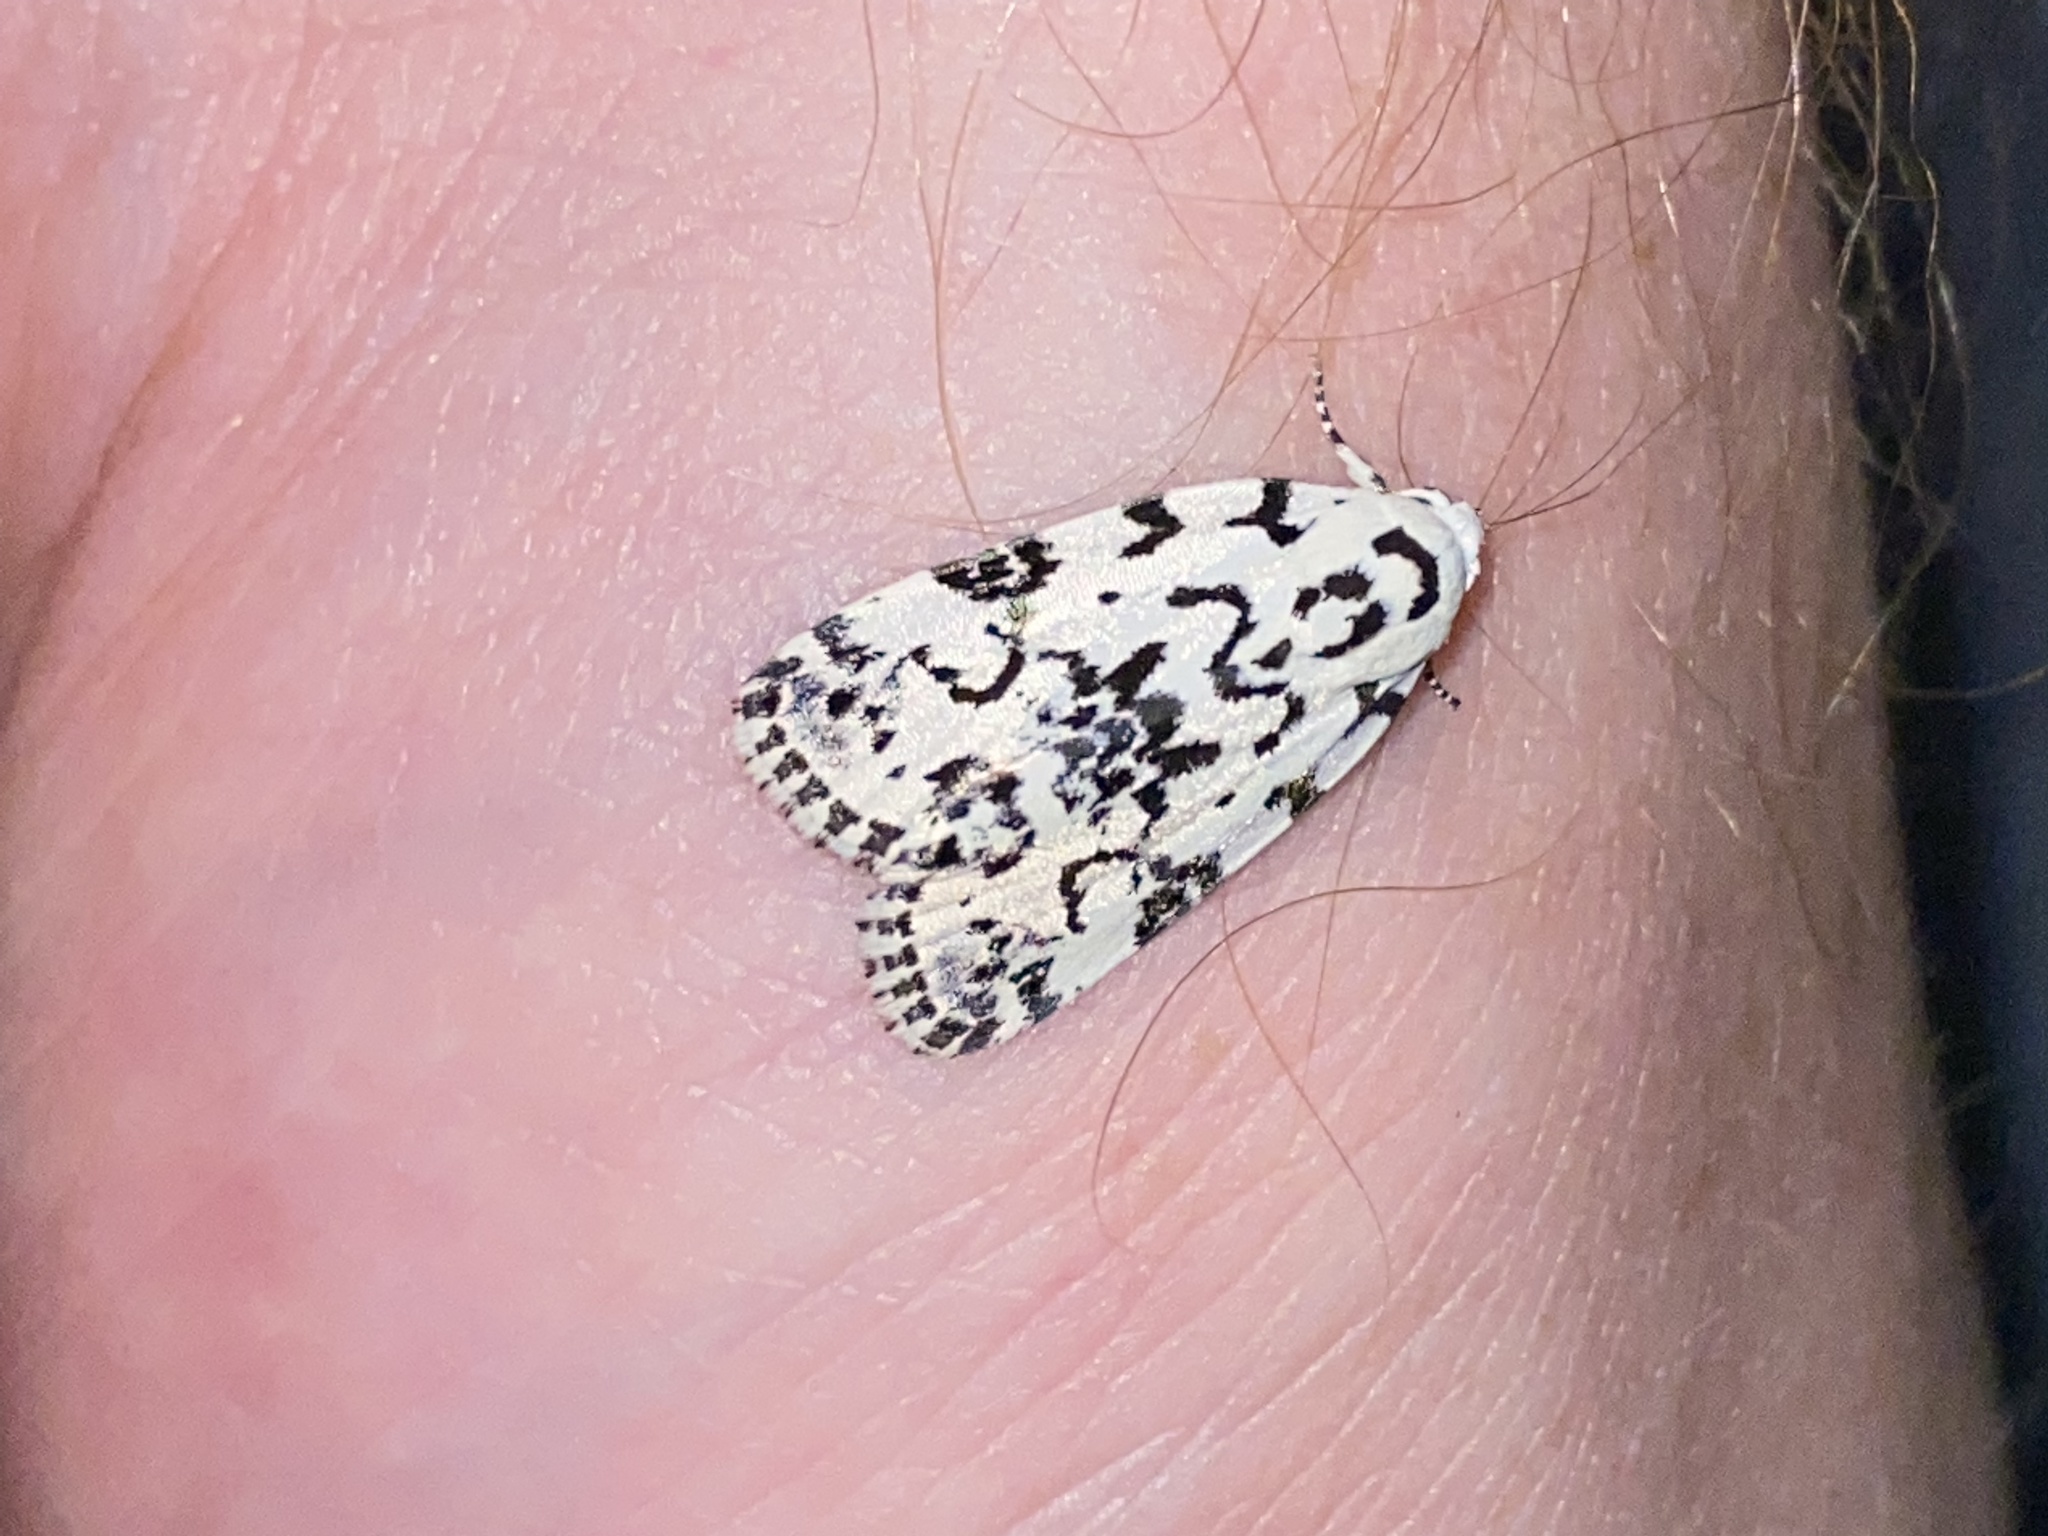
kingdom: Animalia
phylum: Arthropoda
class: Insecta
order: Lepidoptera
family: Noctuidae
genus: Polygrammate
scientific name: Polygrammate hebraeicum
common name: Hebrew moth
